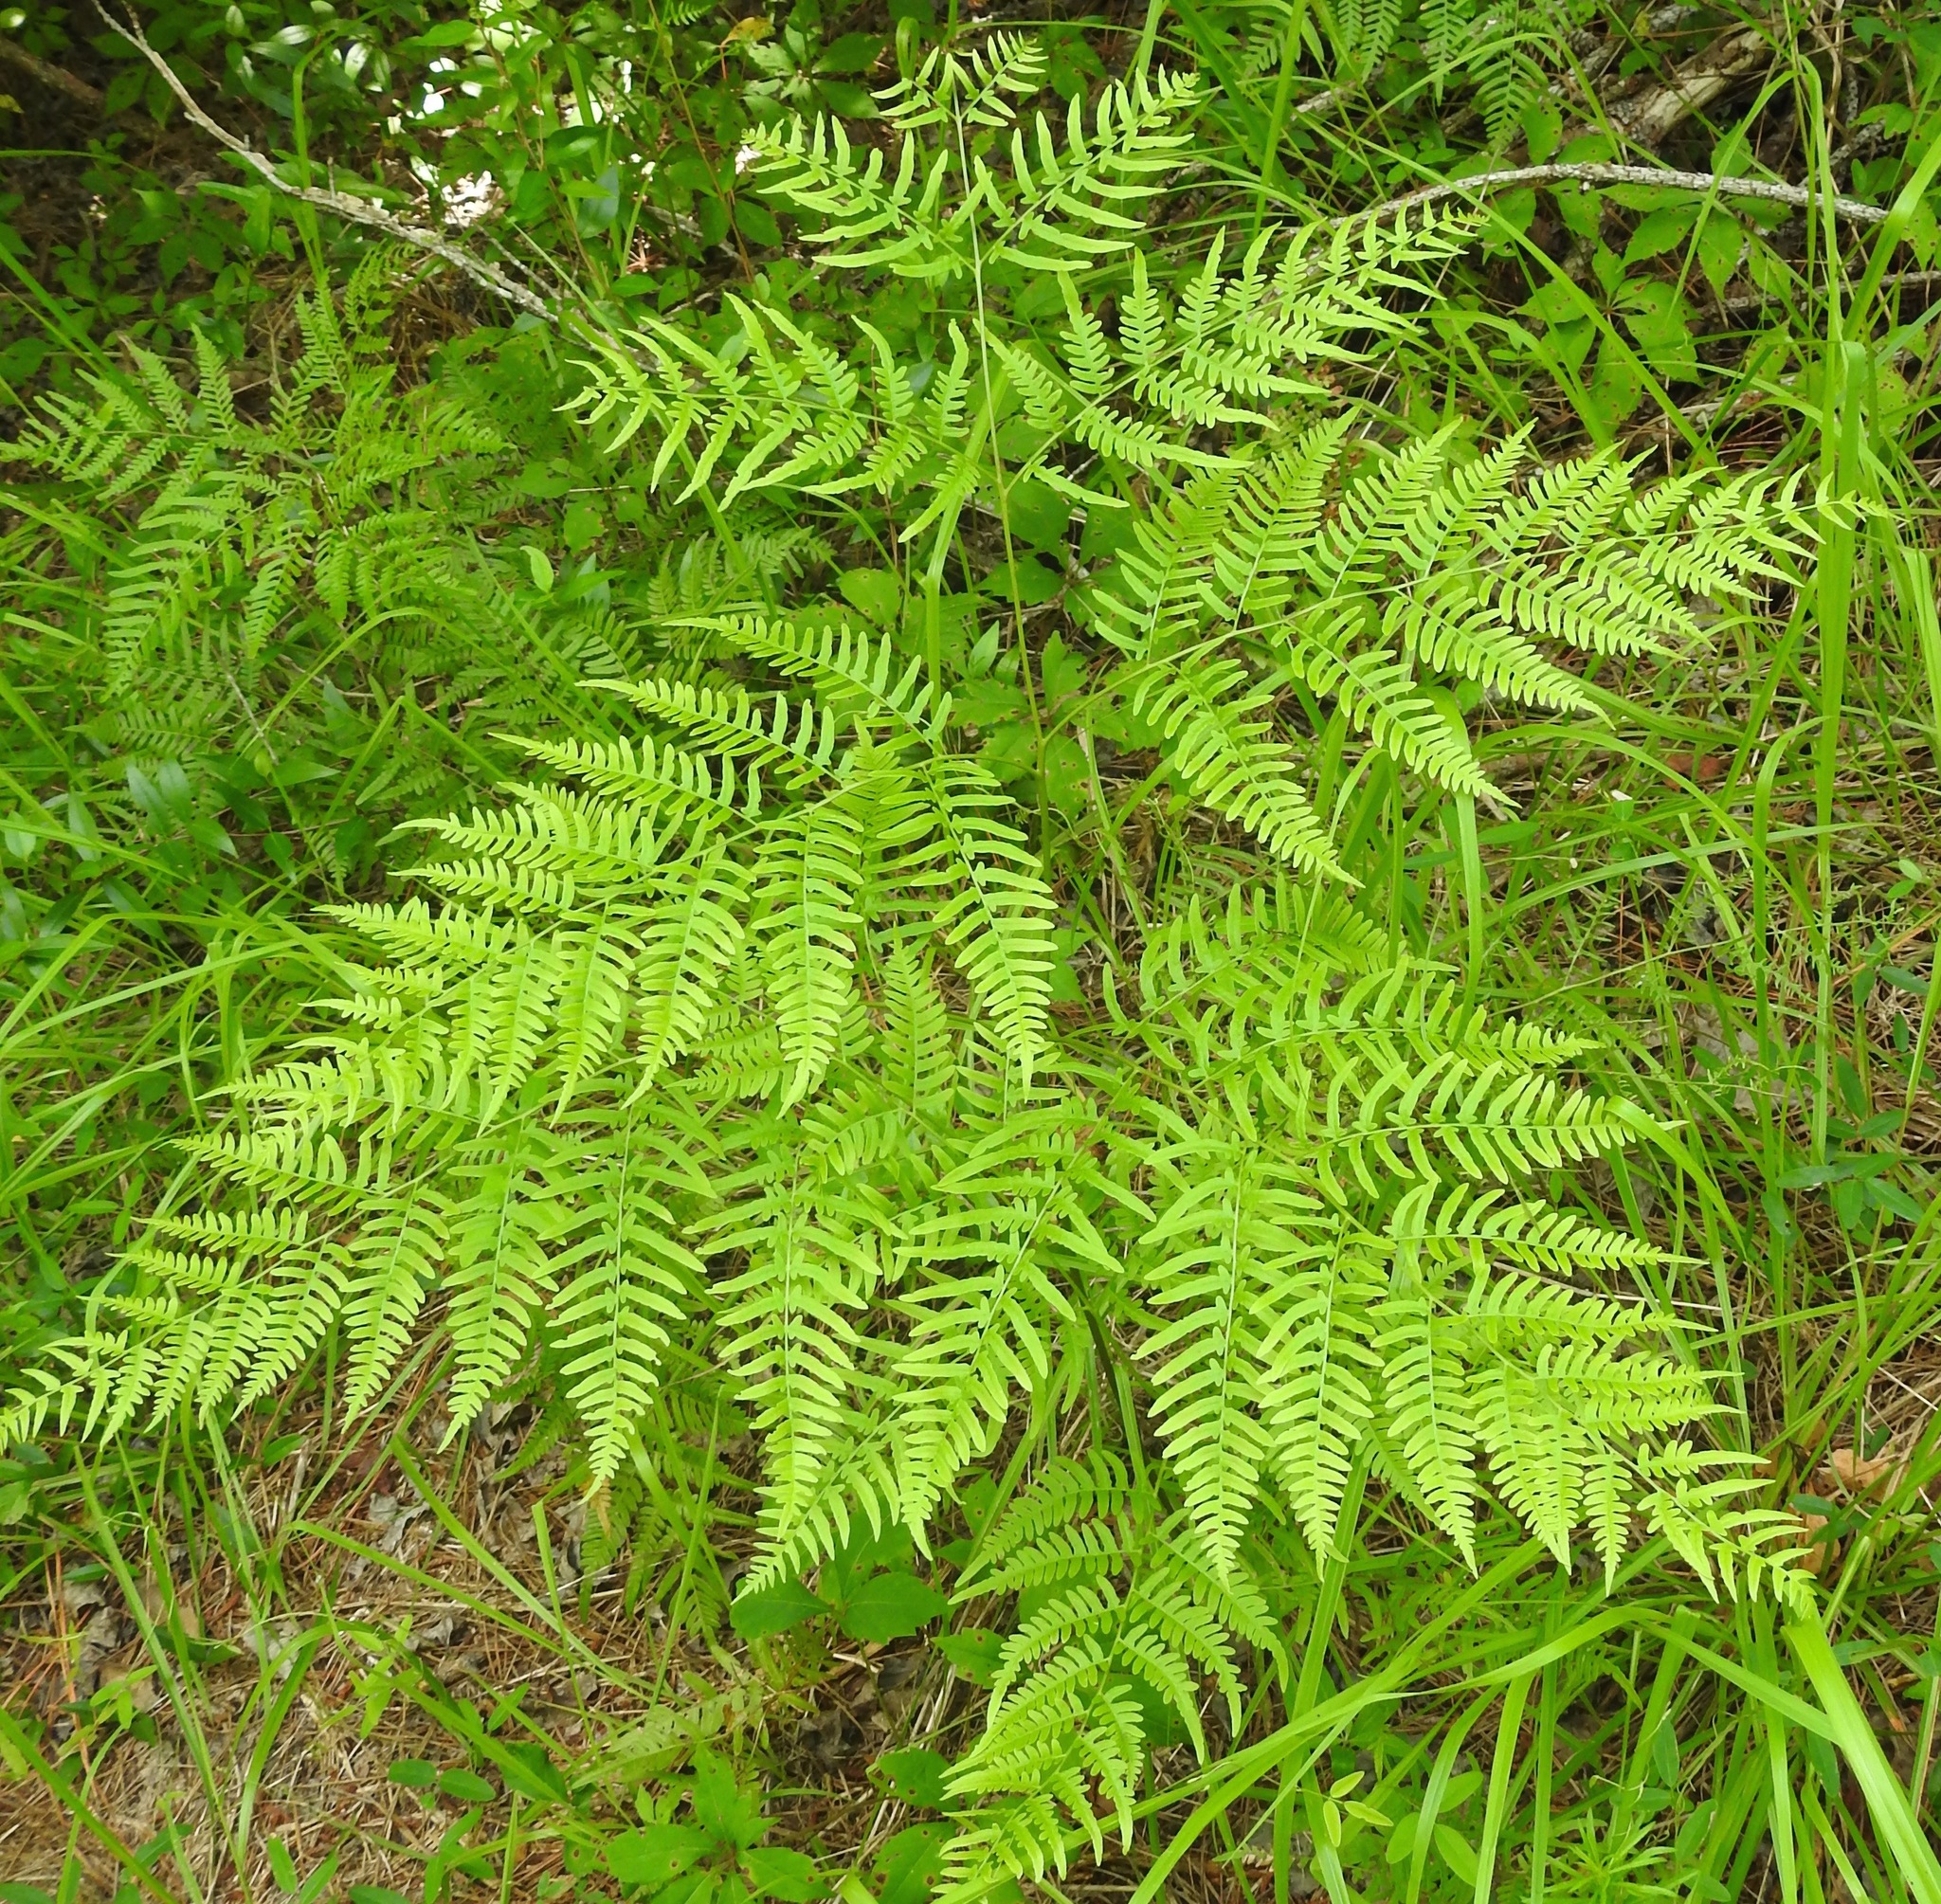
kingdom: Plantae
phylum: Tracheophyta
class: Polypodiopsida
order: Polypodiales
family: Dennstaedtiaceae
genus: Pteridium
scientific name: Pteridium aquilinum
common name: Bracken
